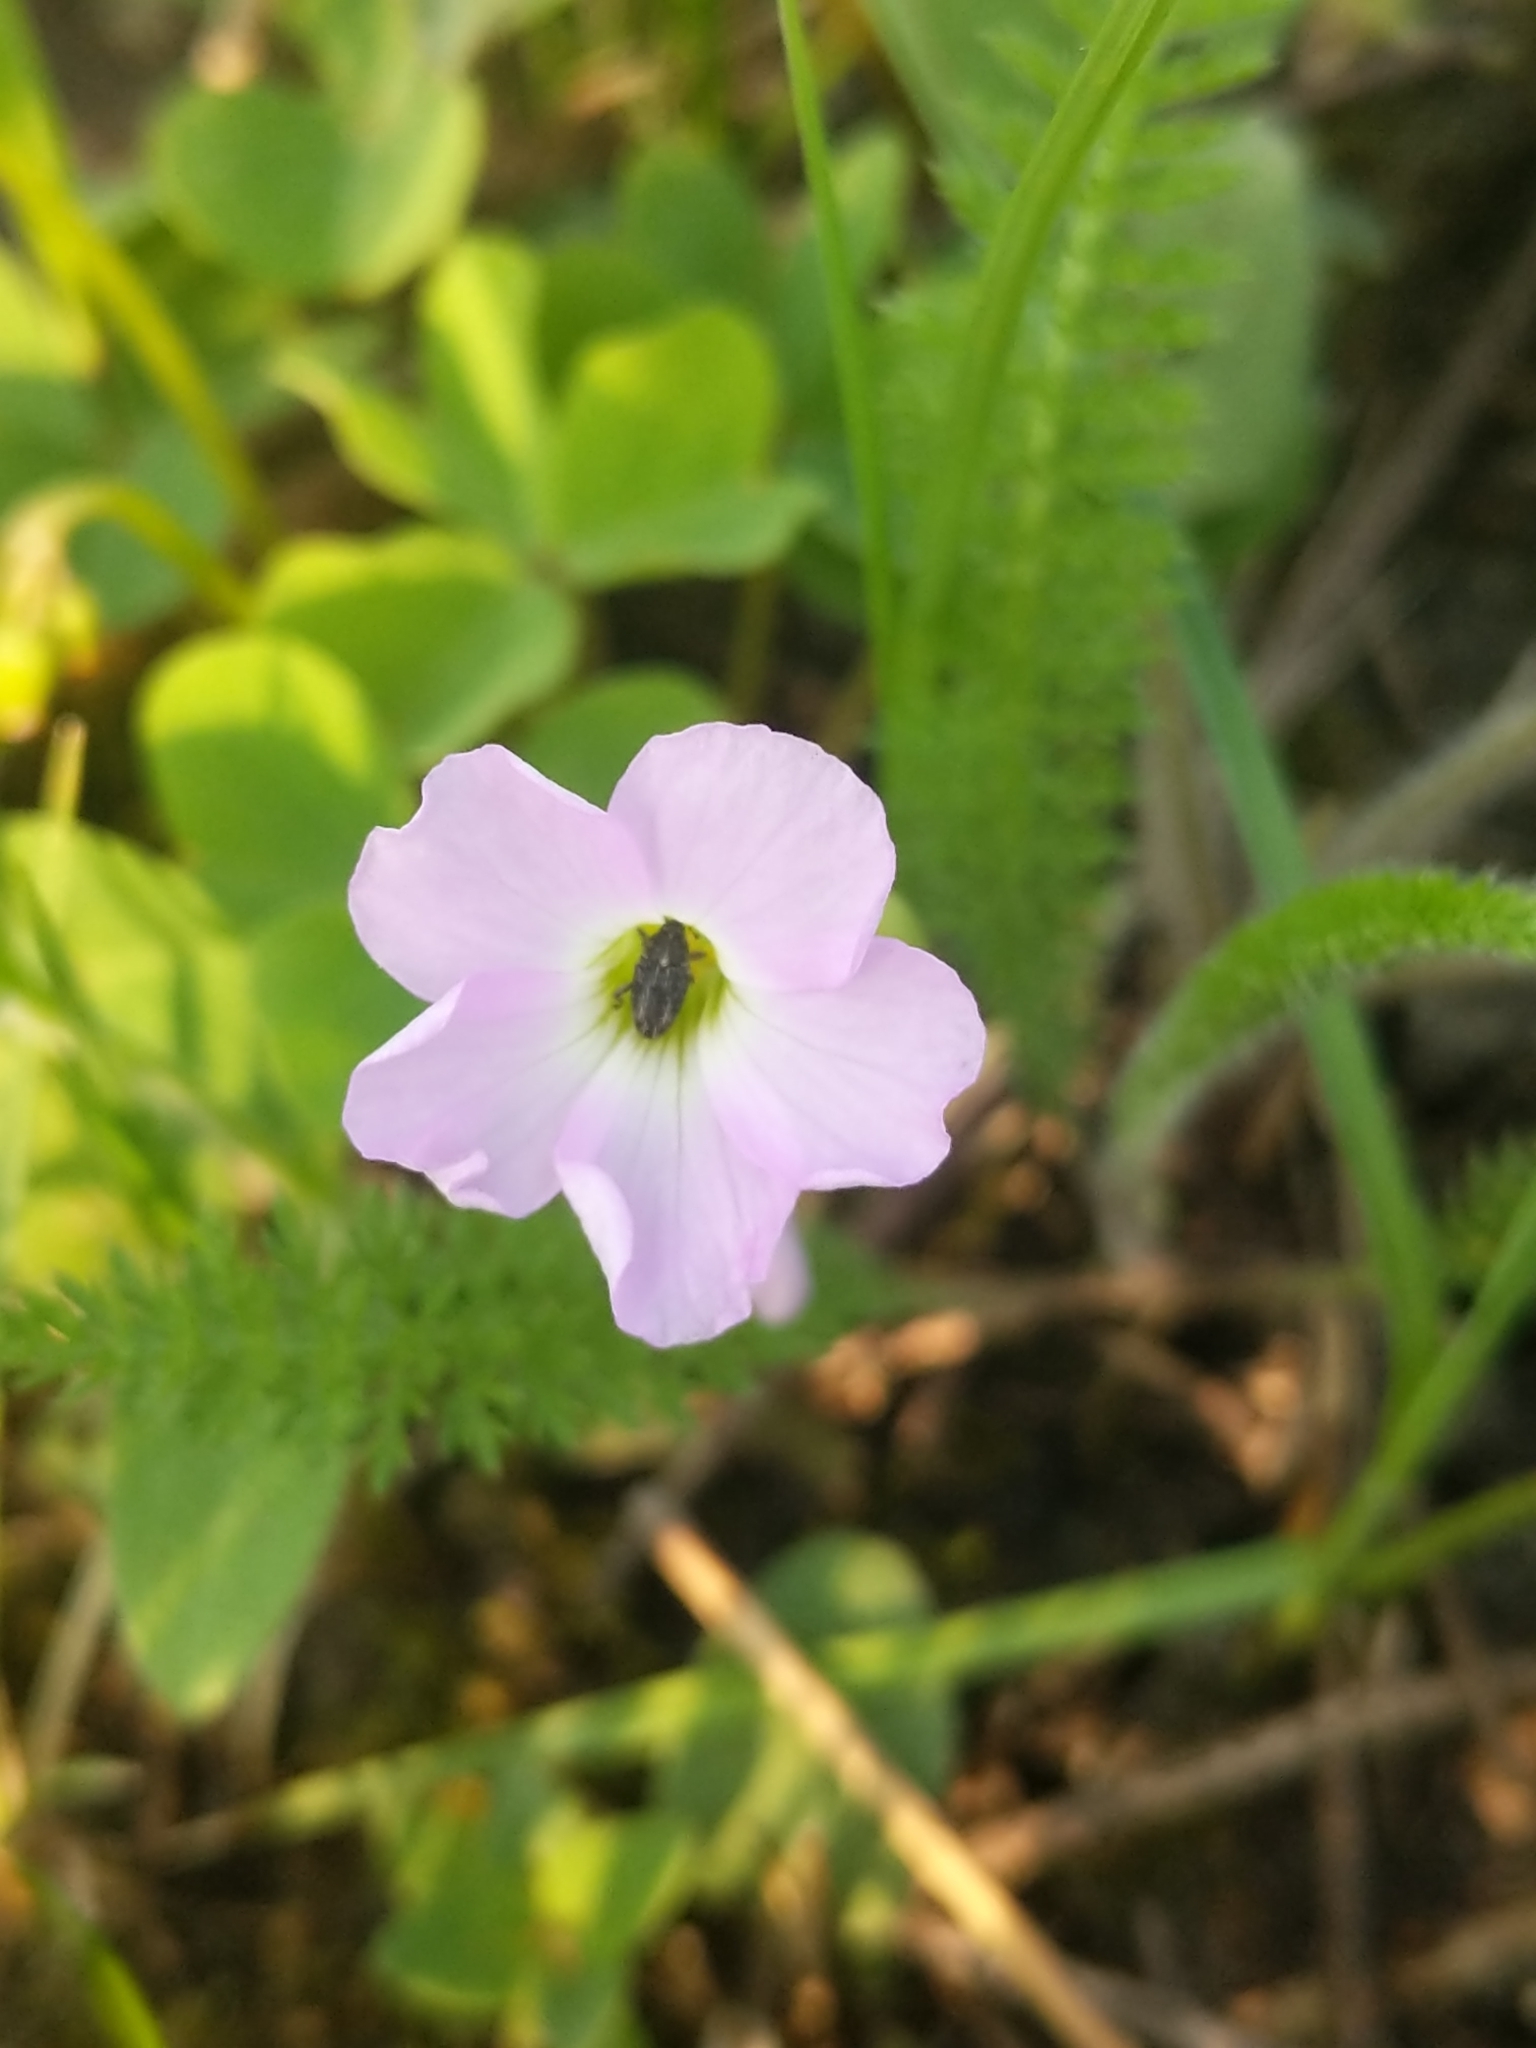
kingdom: Plantae
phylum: Tracheophyta
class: Magnoliopsida
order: Oxalidales
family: Oxalidaceae
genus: Oxalis
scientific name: Oxalis violacea
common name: Violet wood-sorrel
